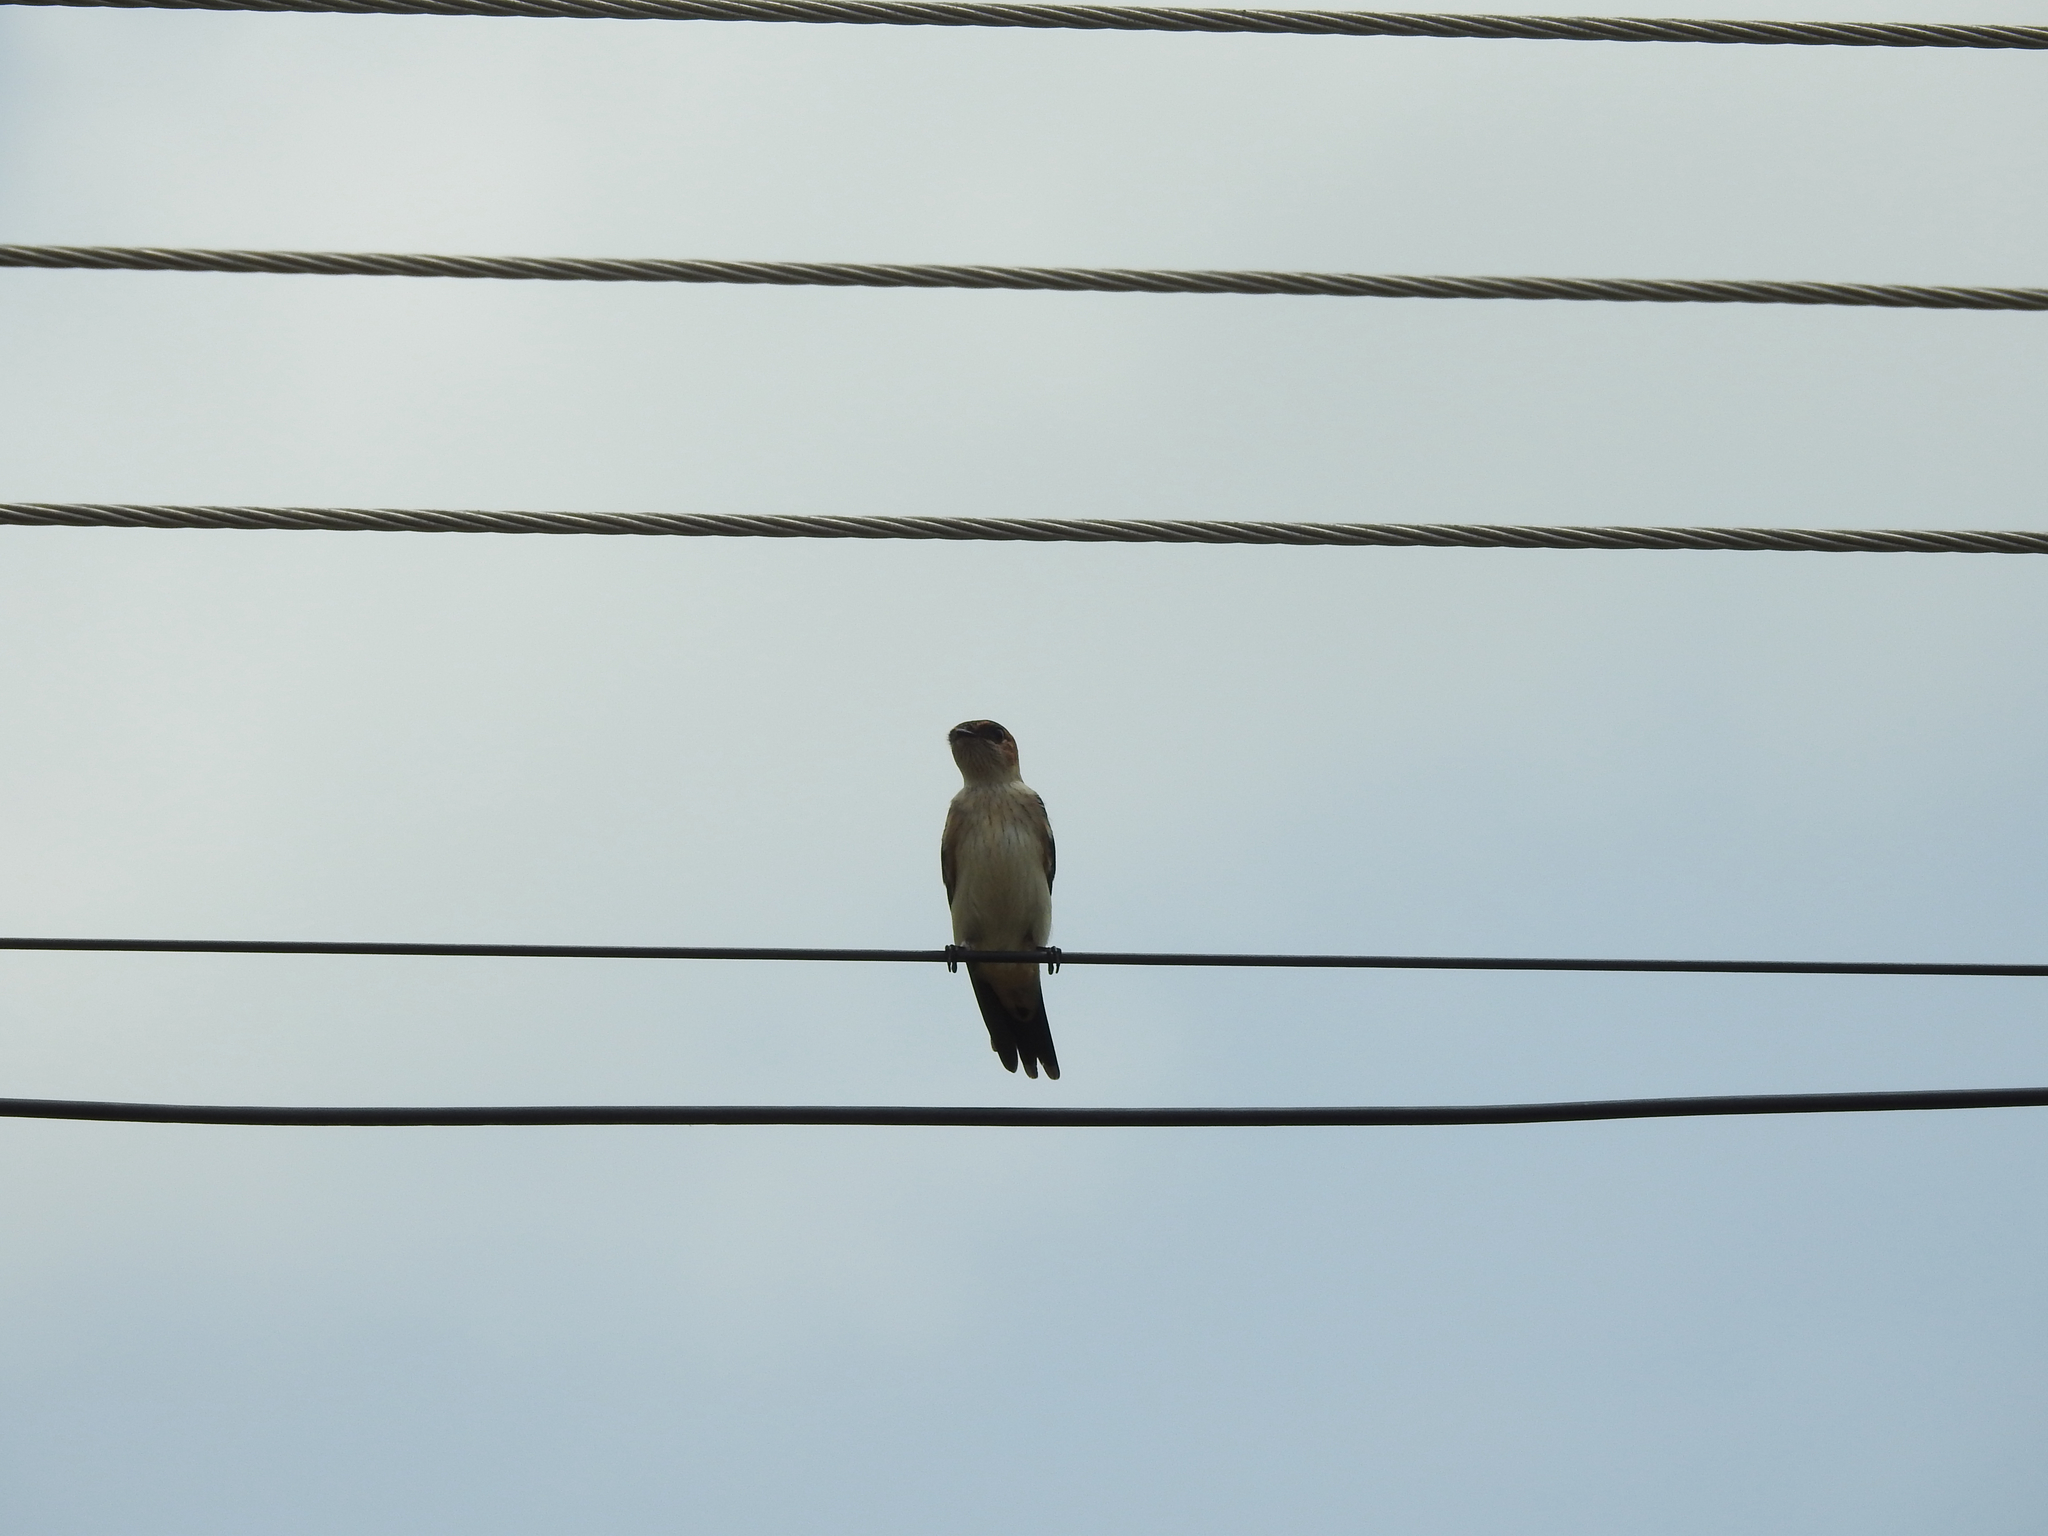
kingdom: Animalia
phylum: Chordata
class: Aves
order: Passeriformes
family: Hirundinidae
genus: Cecropis
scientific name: Cecropis daurica
